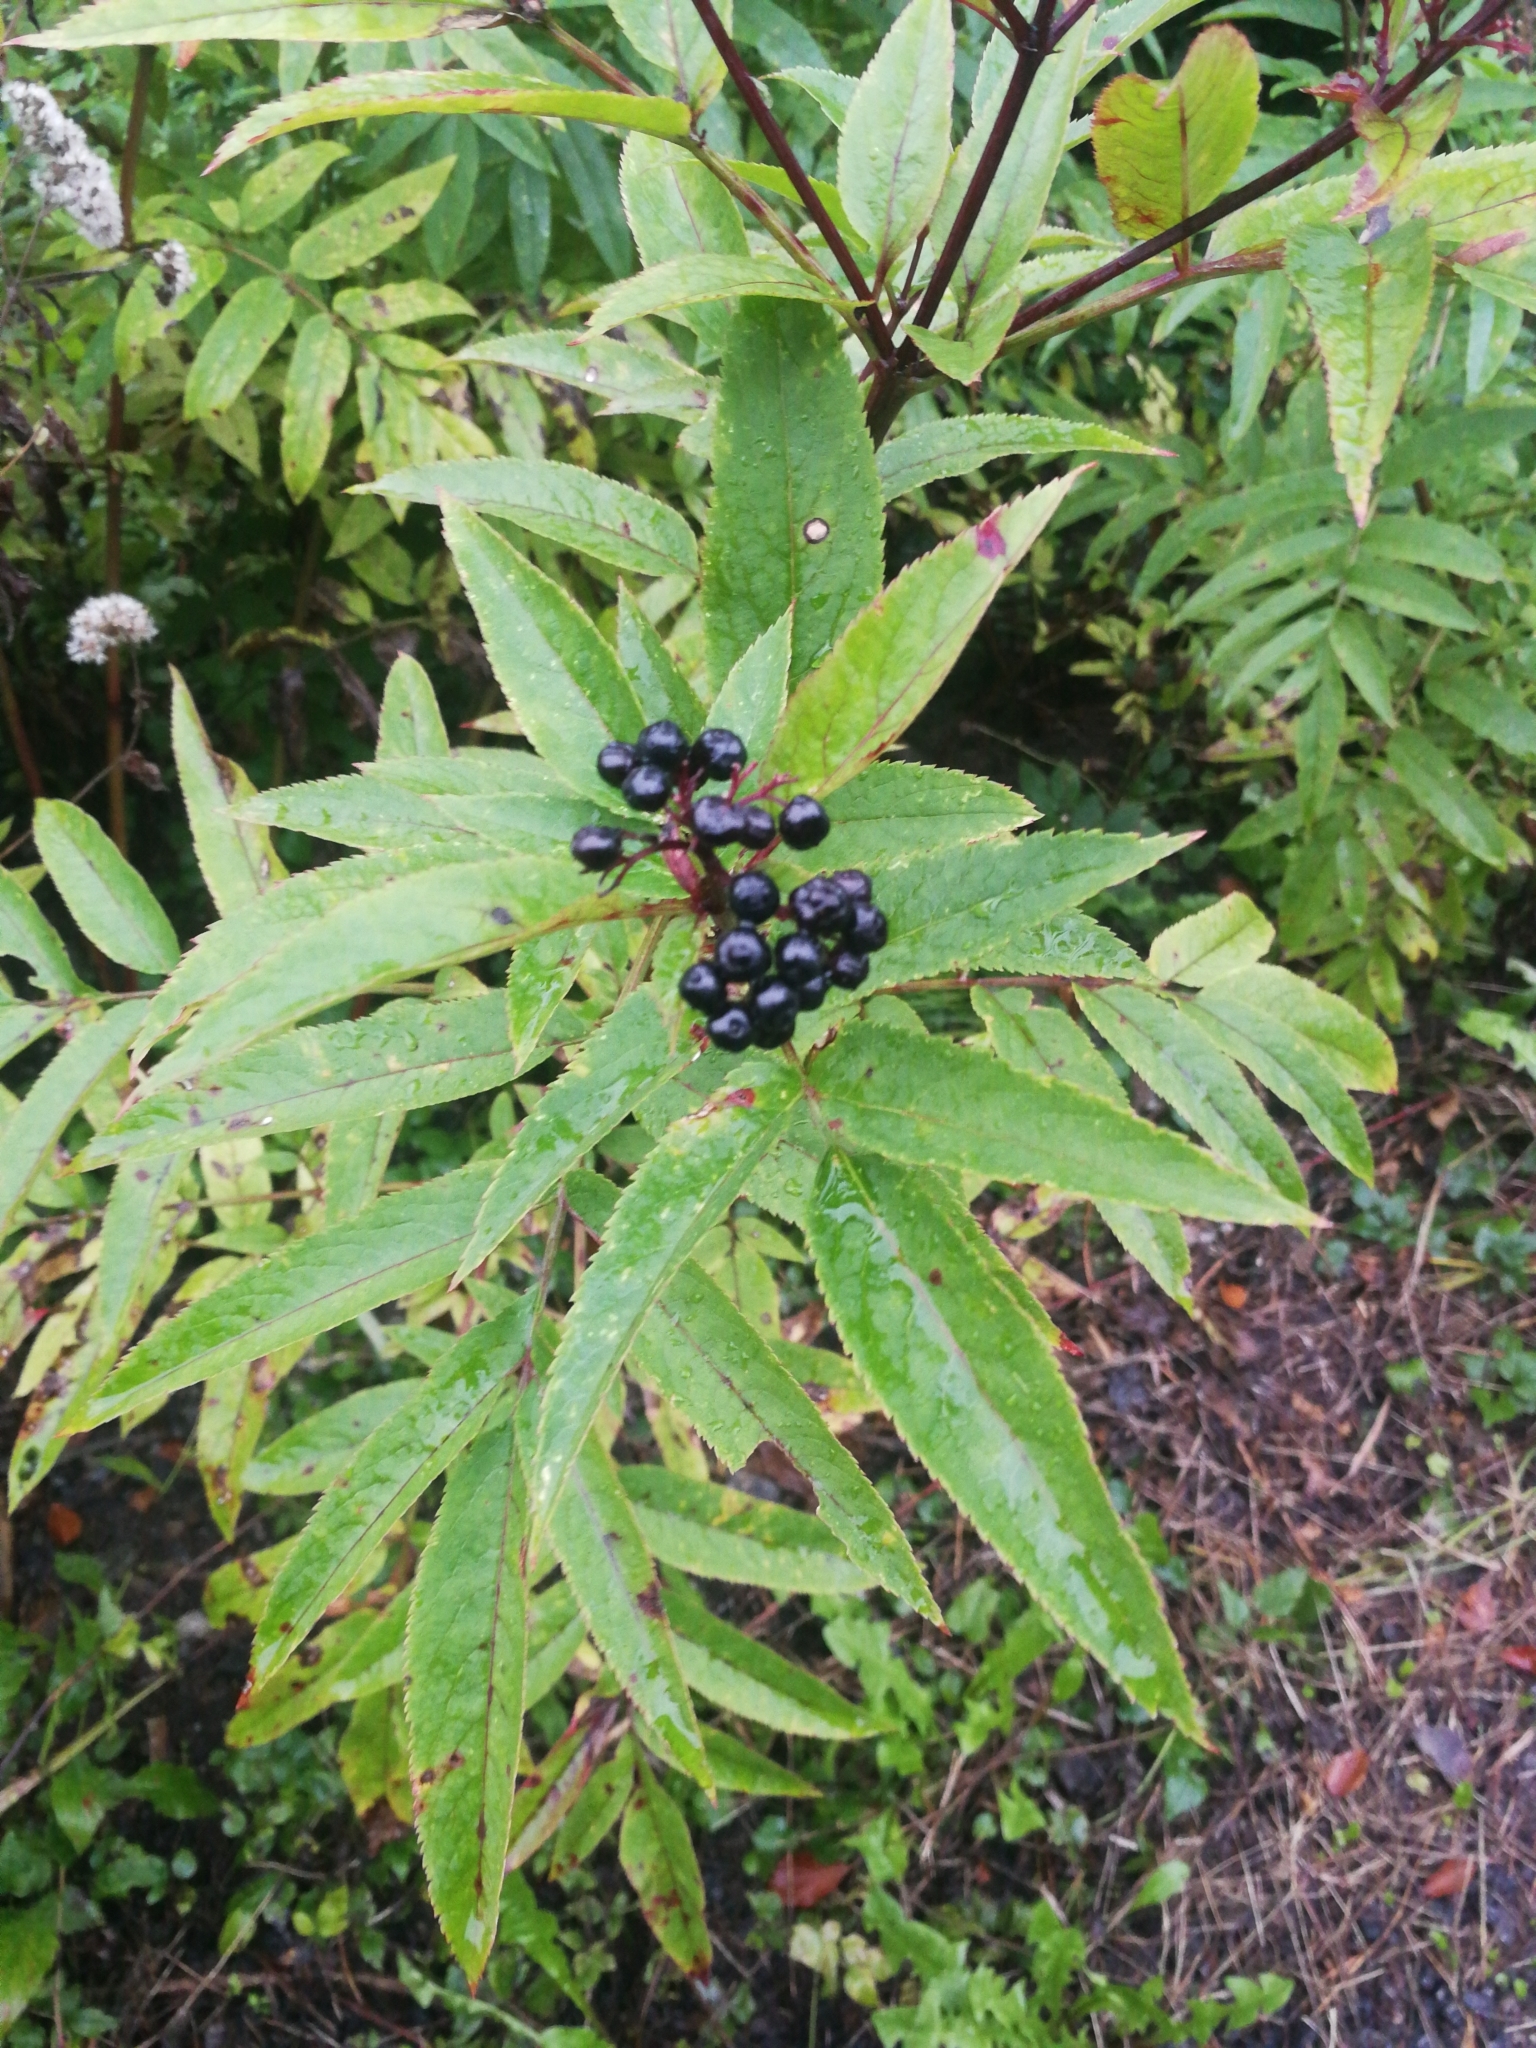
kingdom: Plantae
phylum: Tracheophyta
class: Magnoliopsida
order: Dipsacales
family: Viburnaceae
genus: Sambucus
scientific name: Sambucus ebulus
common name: Dwarf elder
